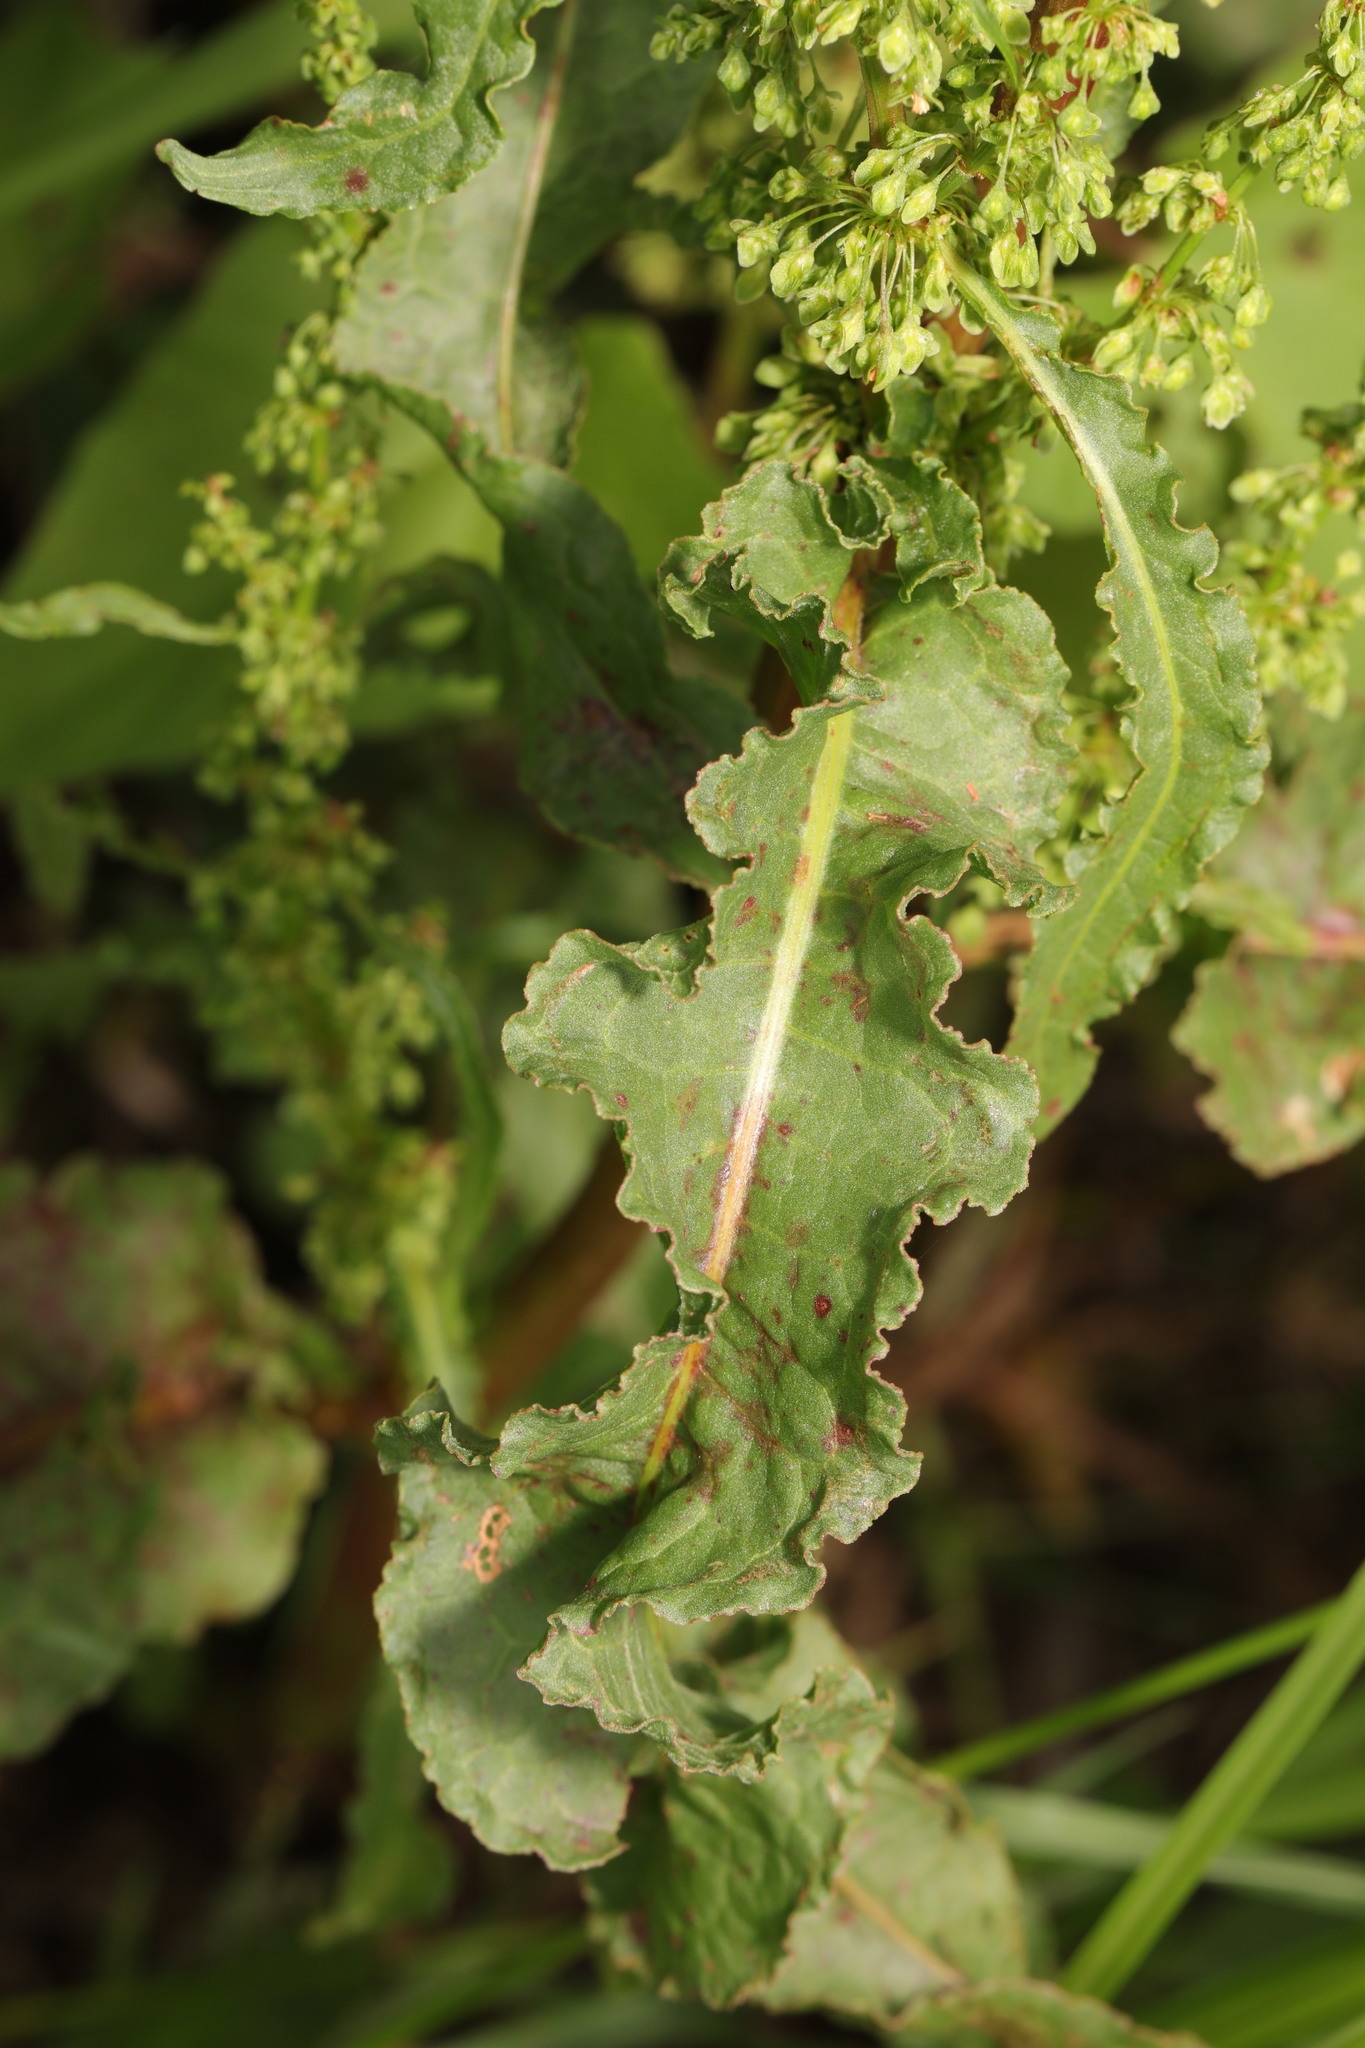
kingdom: Plantae
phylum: Tracheophyta
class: Magnoliopsida
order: Caryophyllales
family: Polygonaceae
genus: Rumex
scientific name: Rumex crispus
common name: Curled dock
